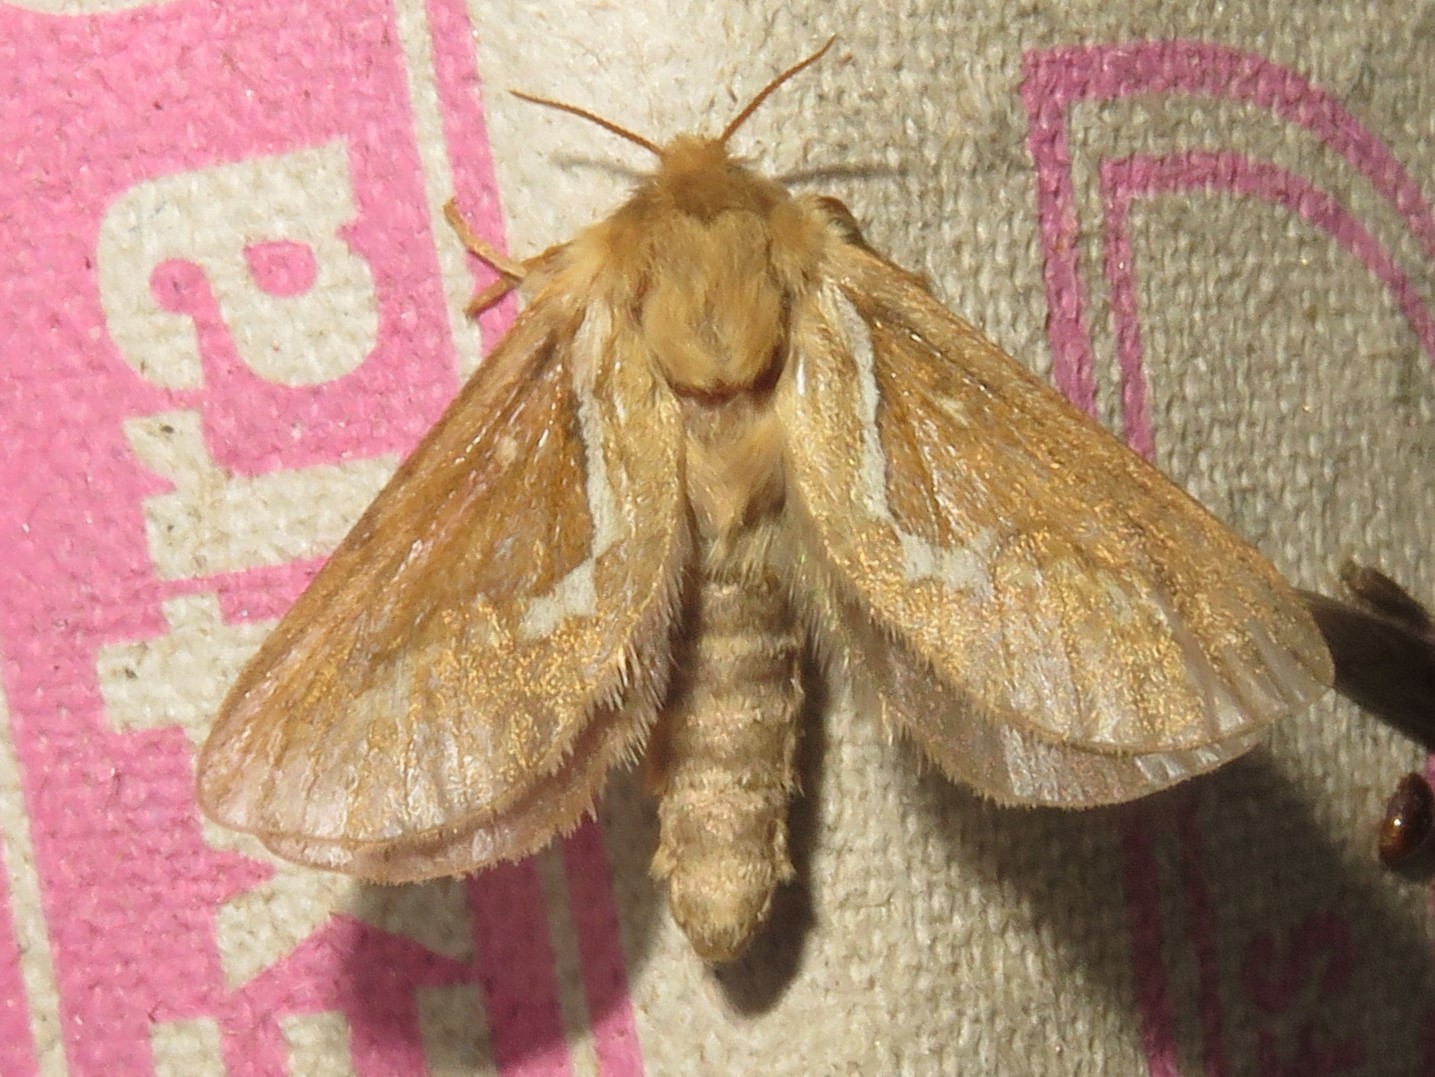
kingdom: Animalia
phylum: Arthropoda
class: Insecta
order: Lepidoptera
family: Hepialidae
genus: Korscheltellus
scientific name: Korscheltellus lupulina
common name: Common swift
